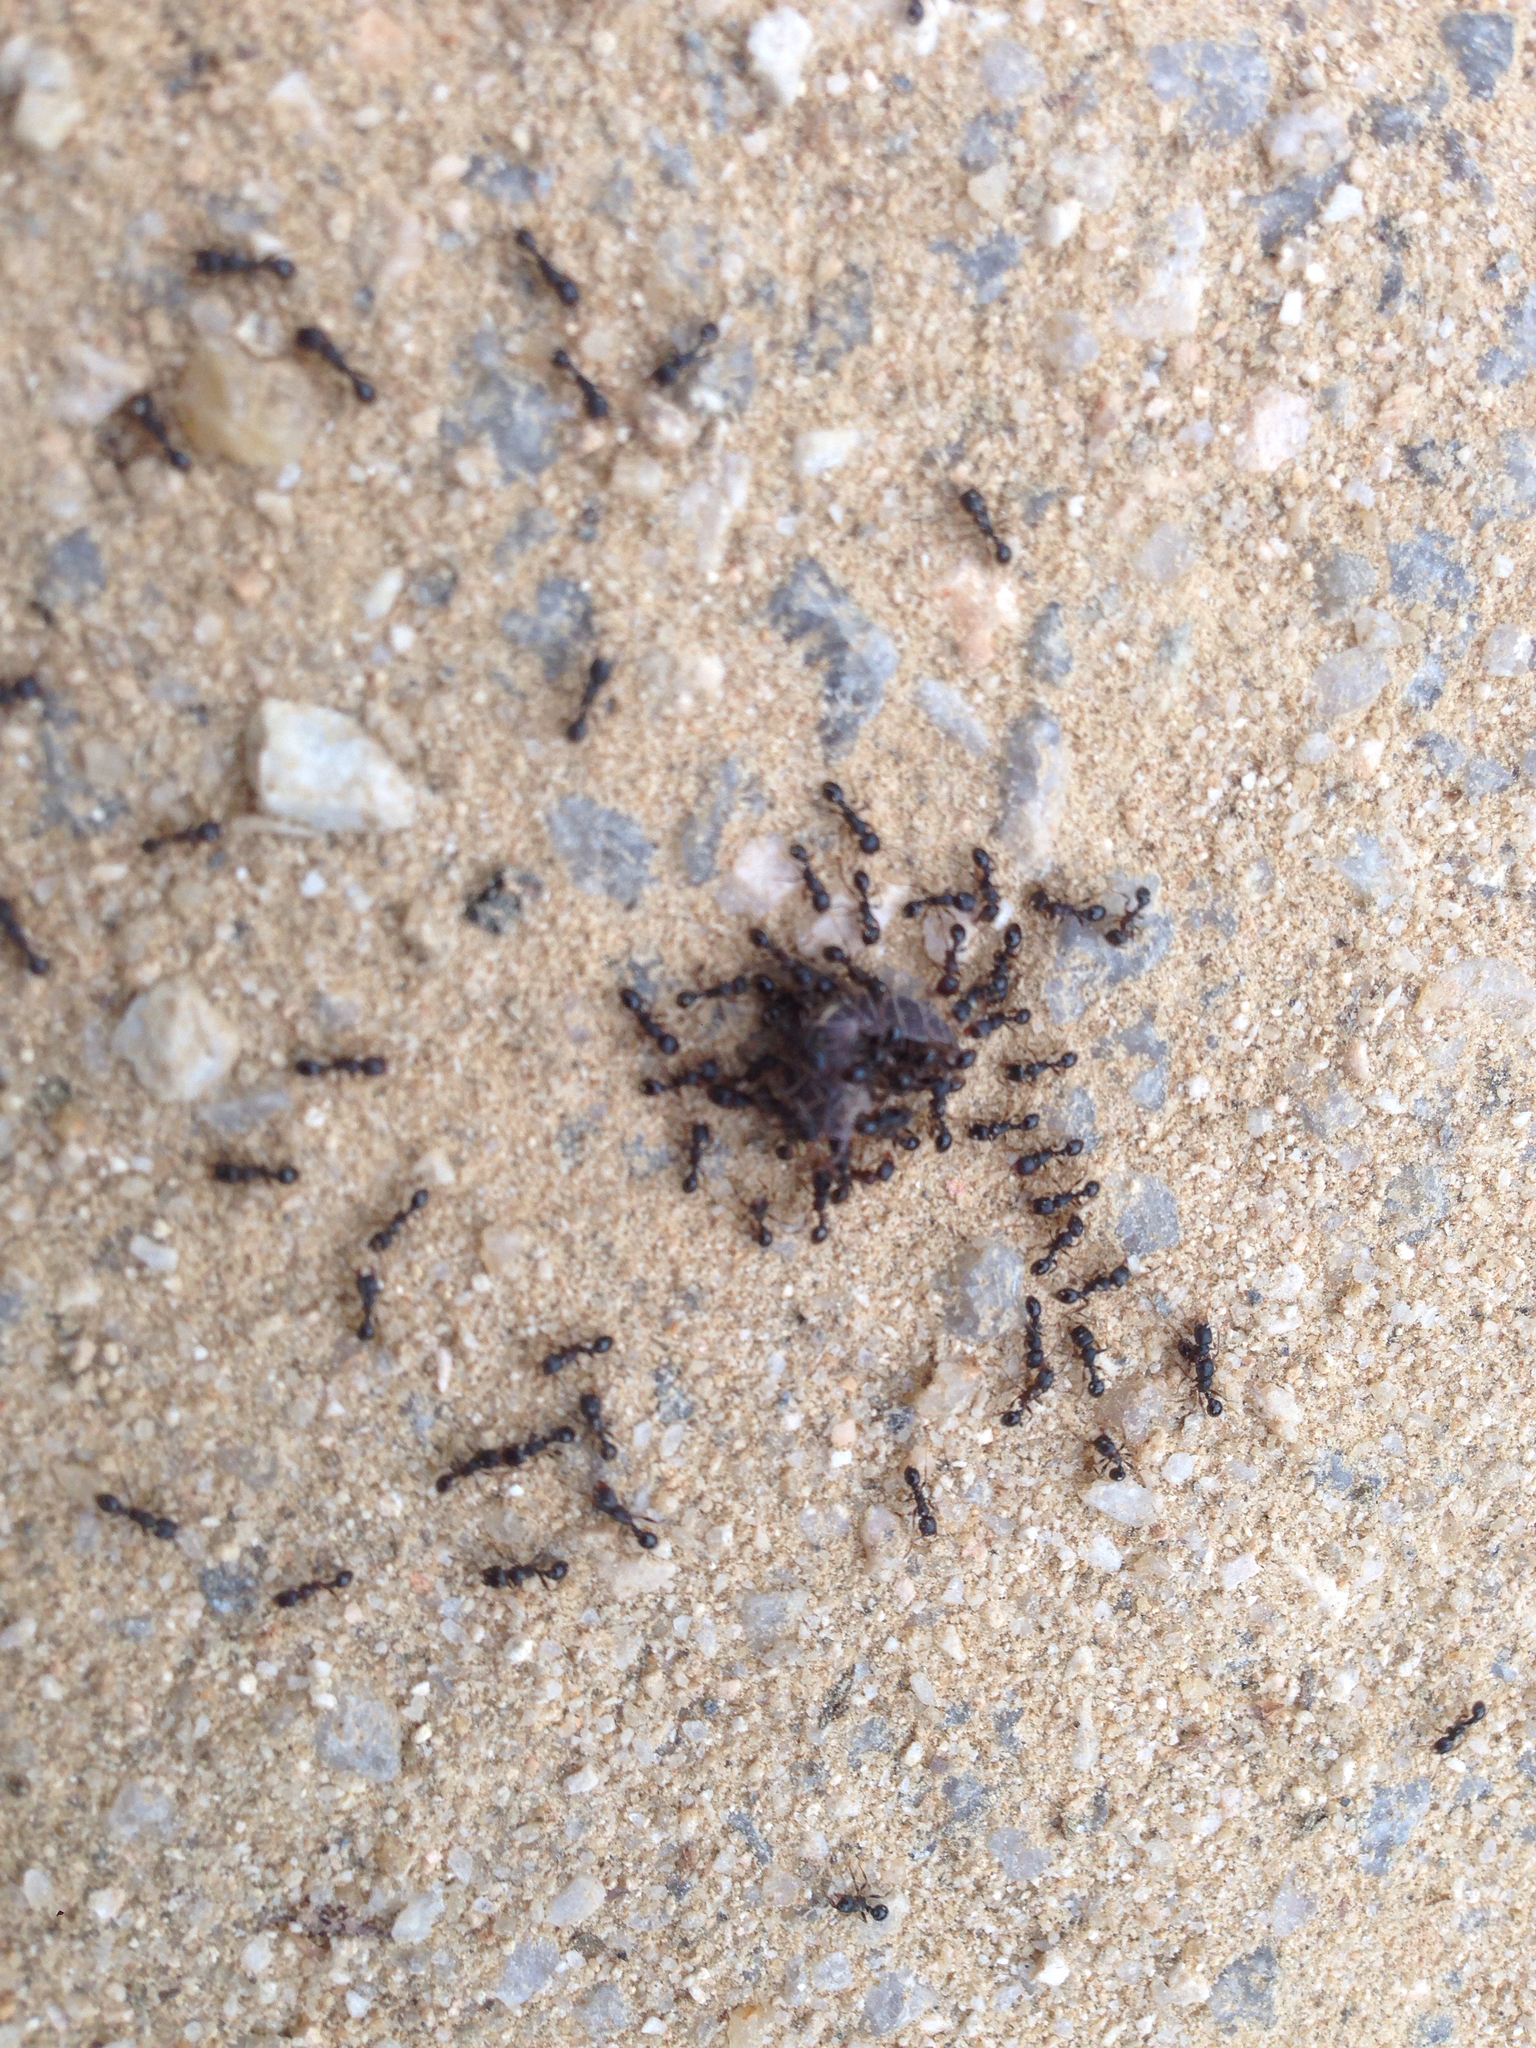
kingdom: Animalia
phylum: Arthropoda
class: Insecta
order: Hymenoptera
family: Formicidae
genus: Tetramorium
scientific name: Tetramorium tsushimae
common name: Ant
